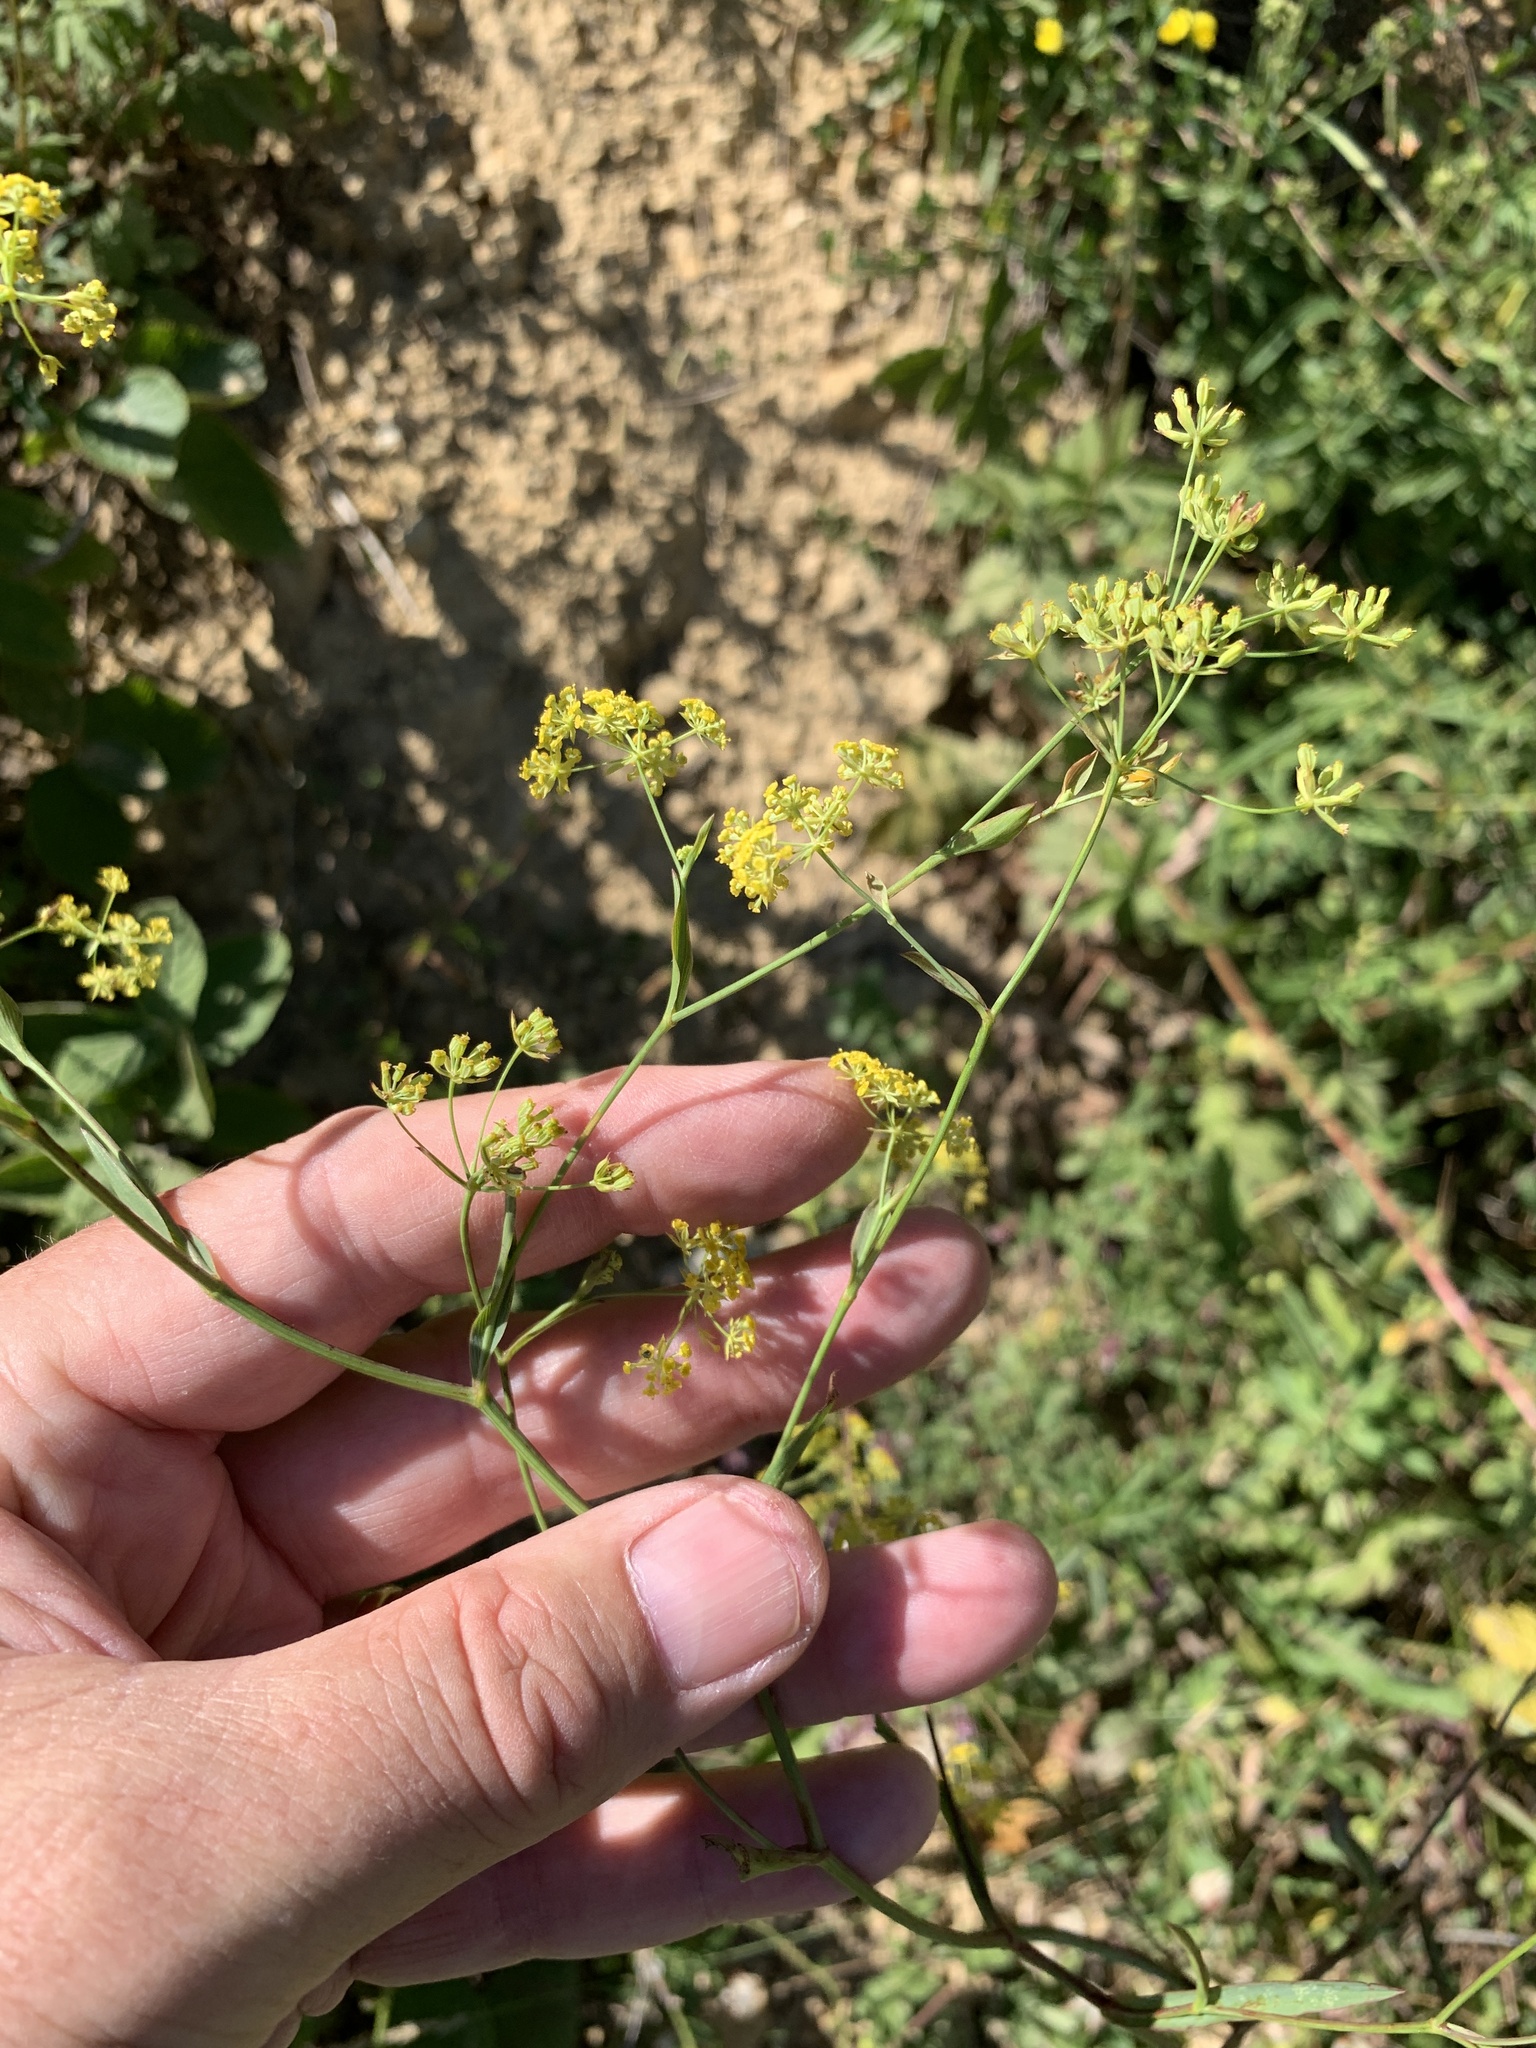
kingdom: Plantae
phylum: Tracheophyta
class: Magnoliopsida
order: Apiales
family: Apiaceae
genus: Bupleurum
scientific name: Bupleurum falcatum
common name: Sickle-leaved hare's-ear
